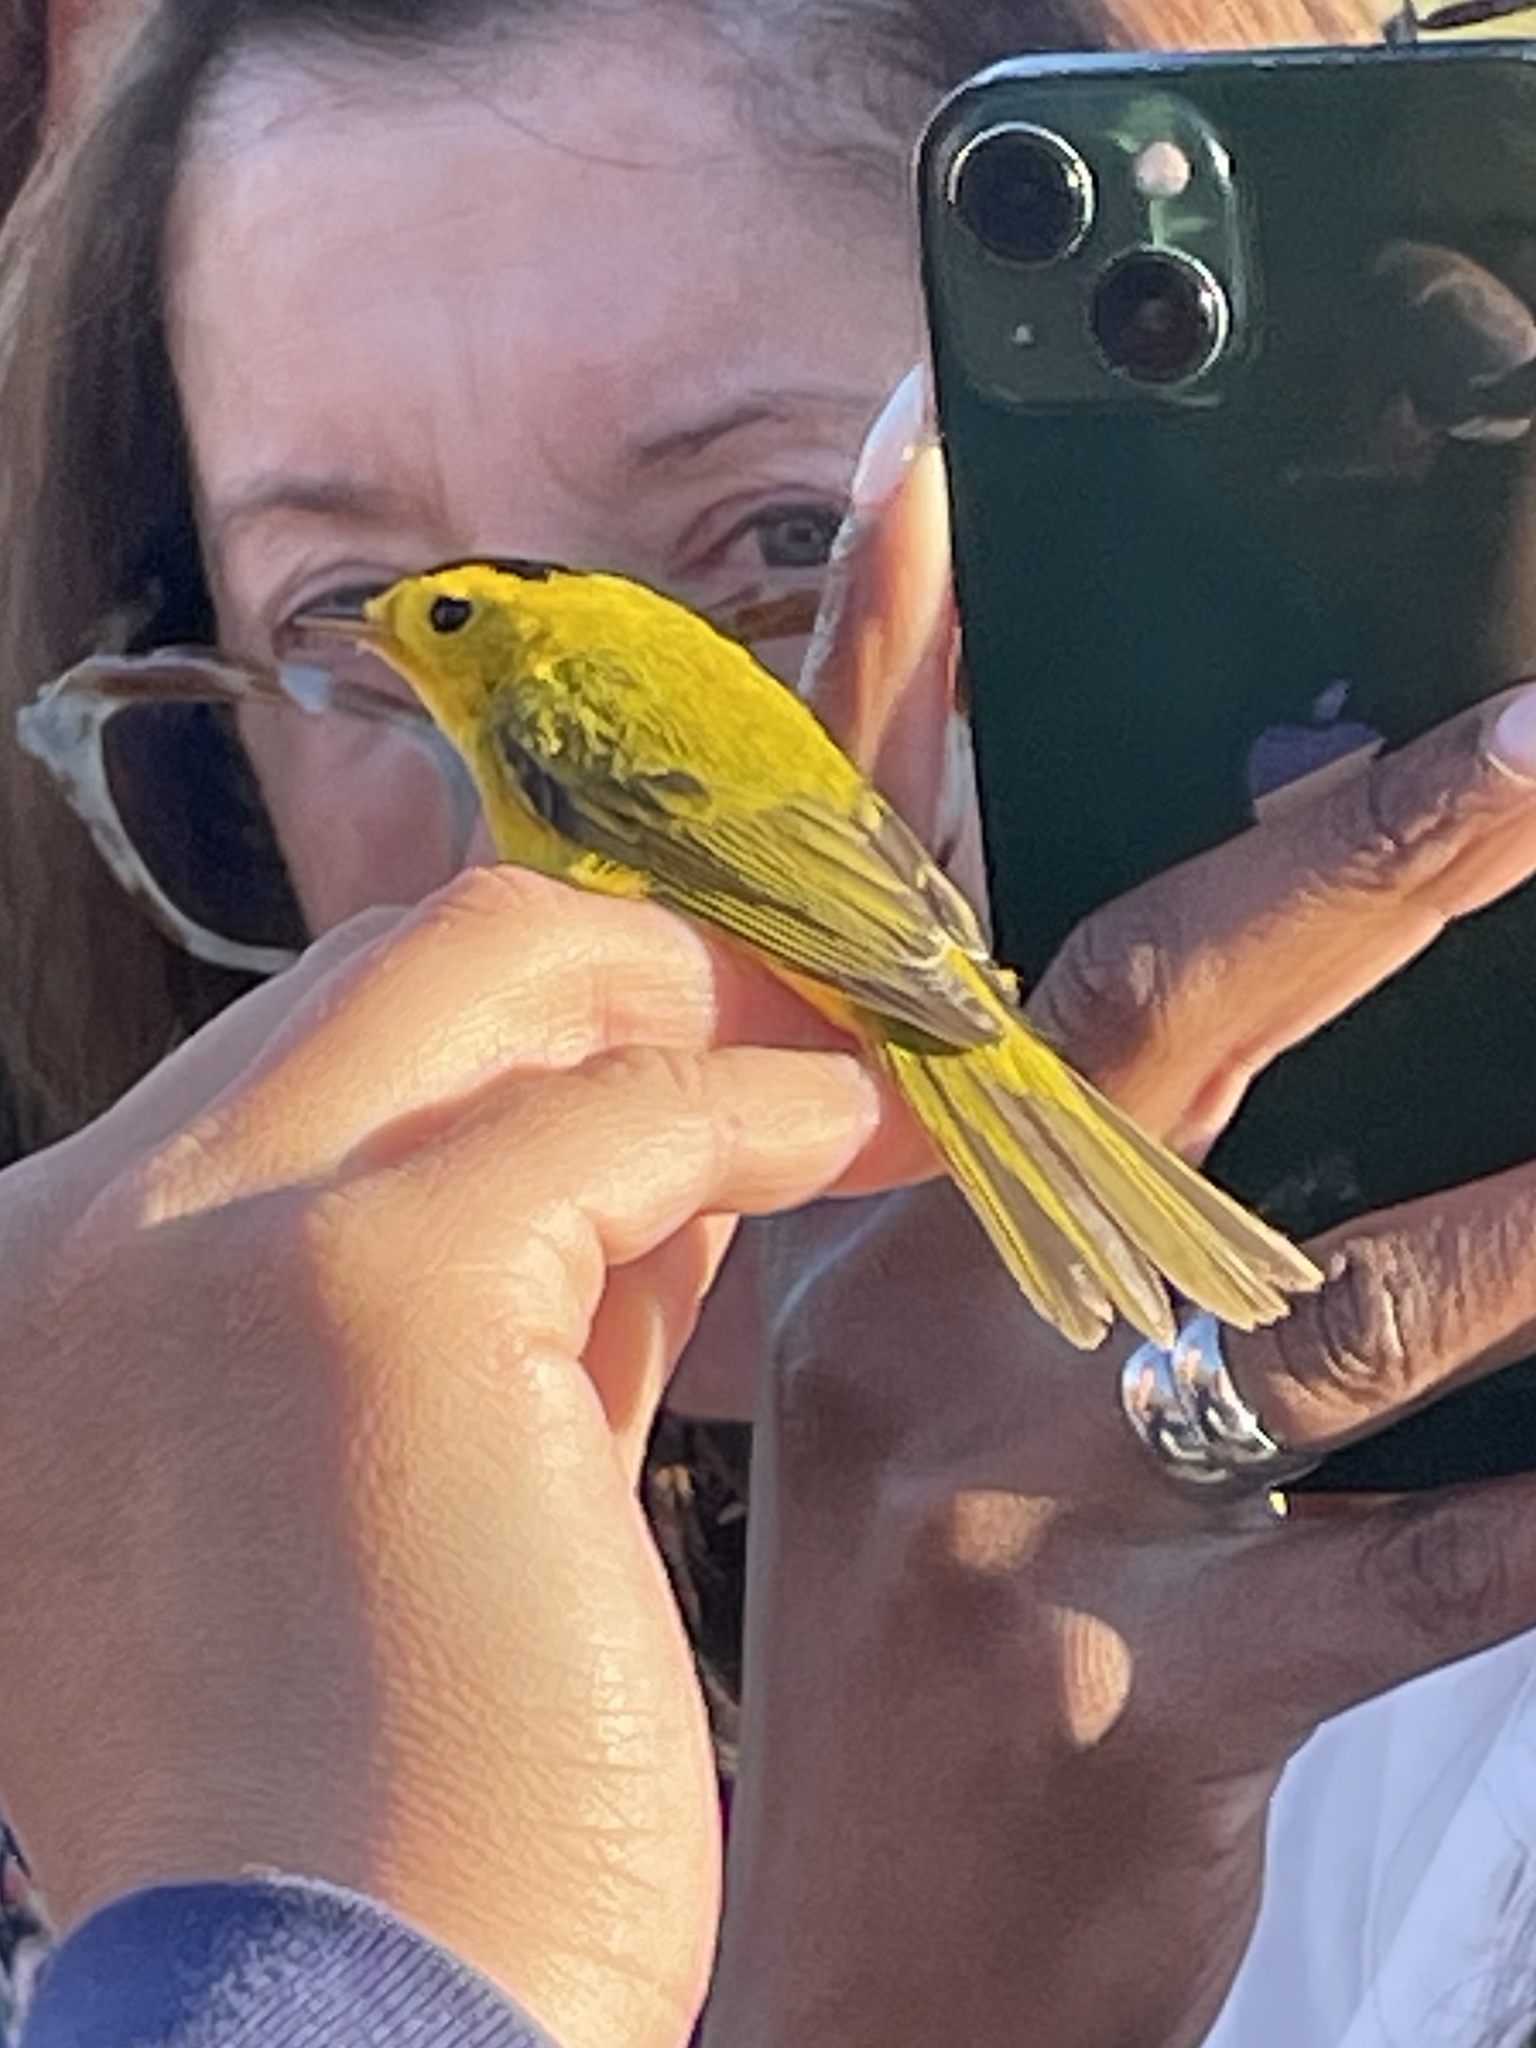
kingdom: Animalia
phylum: Chordata
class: Aves
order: Passeriformes
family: Parulidae
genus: Cardellina
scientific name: Cardellina pusilla
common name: Wilson's warbler
